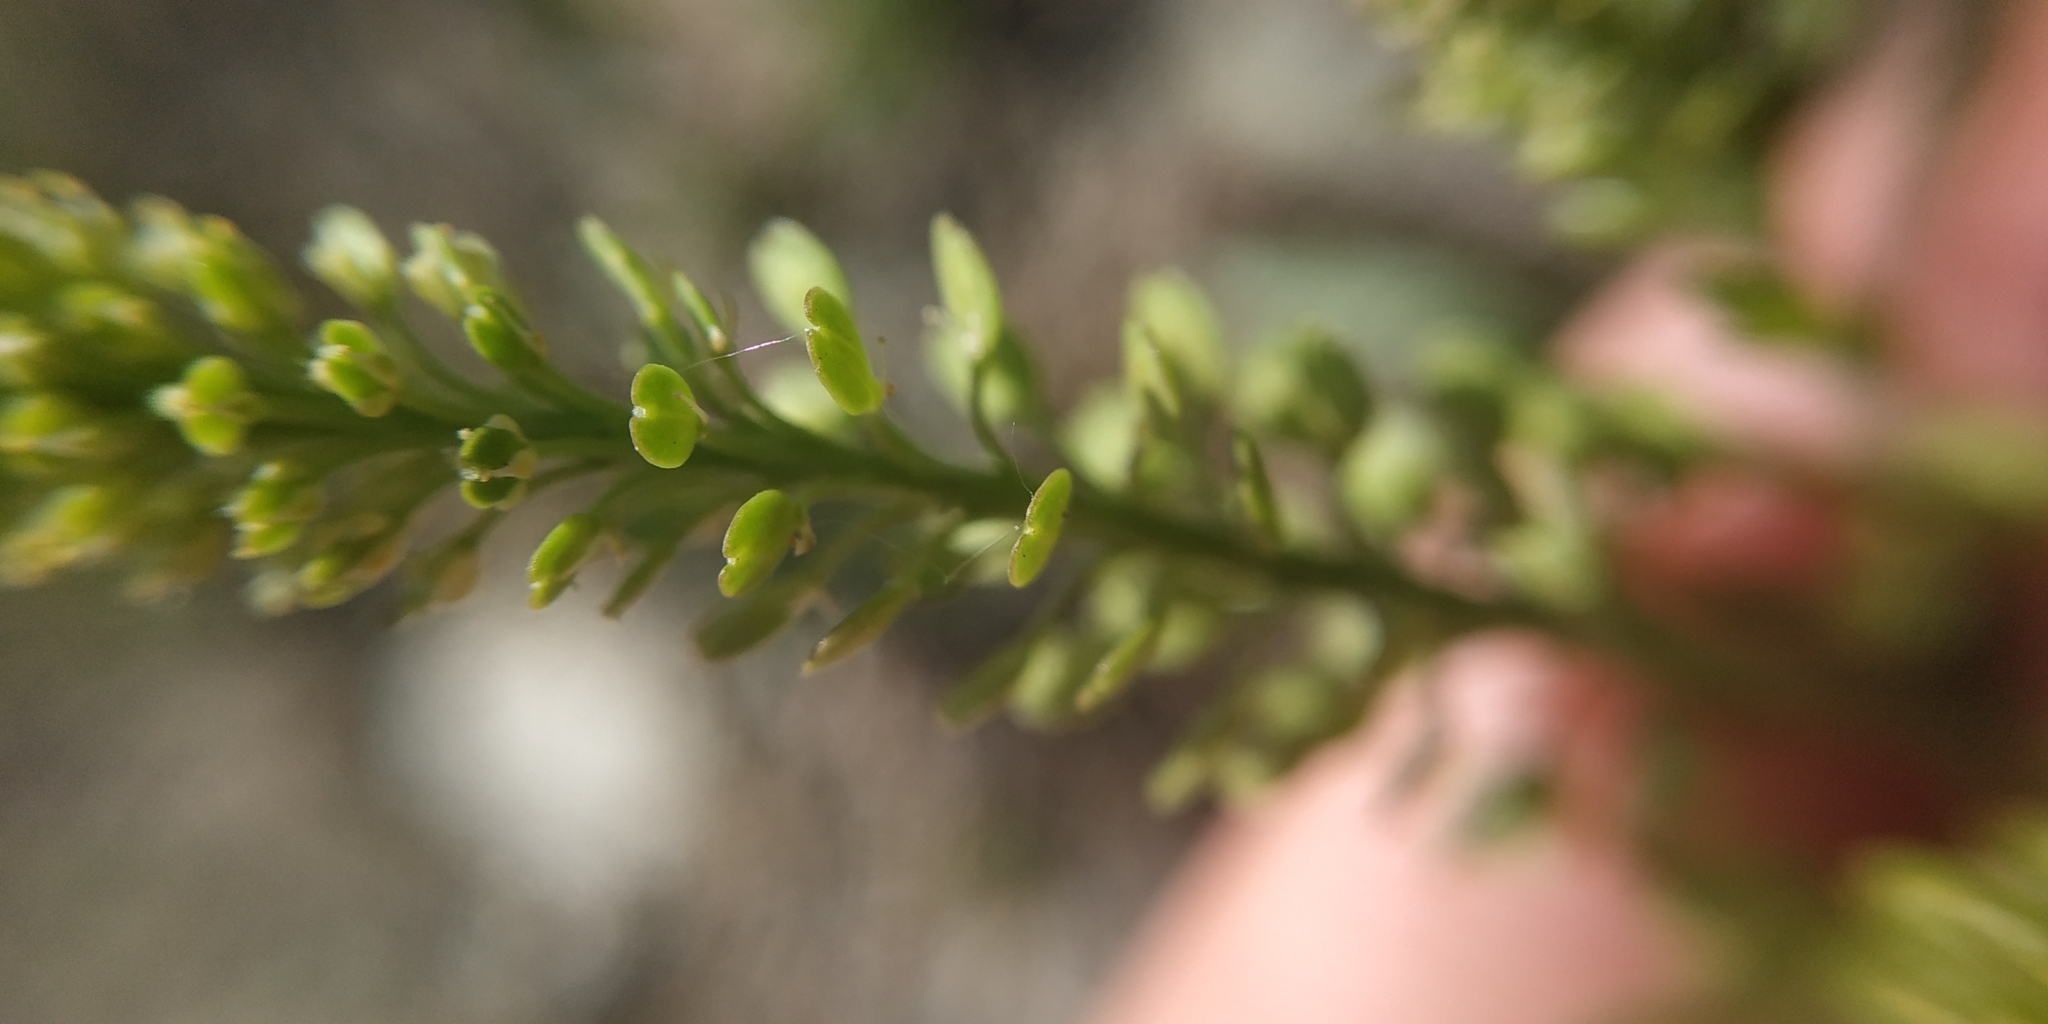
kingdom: Plantae
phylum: Tracheophyta
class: Magnoliopsida
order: Brassicales
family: Brassicaceae
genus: Lepidium
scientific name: Lepidium densiflorum
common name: Miner's pepperwort
